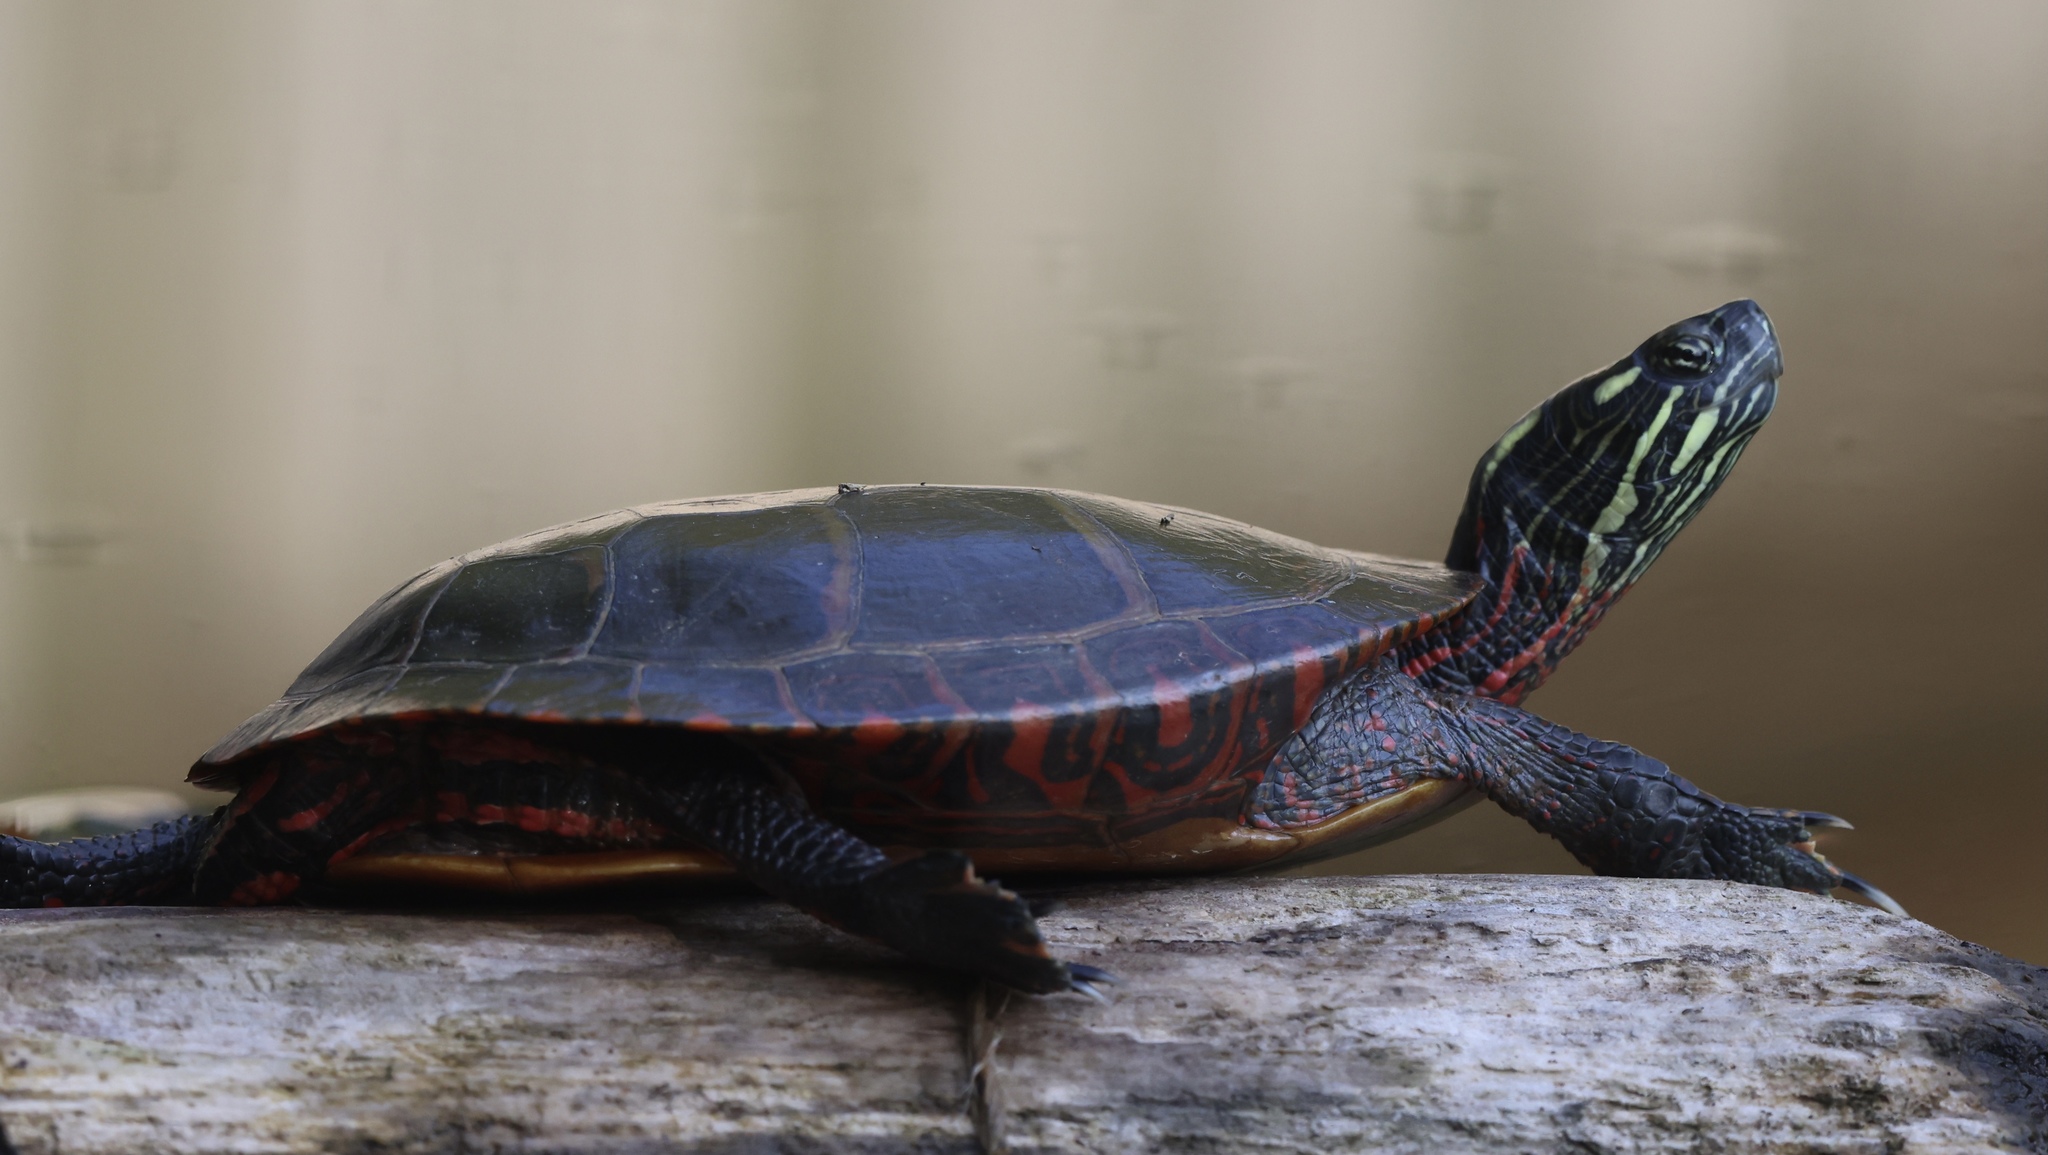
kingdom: Animalia
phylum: Chordata
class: Testudines
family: Emydidae
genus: Chrysemys
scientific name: Chrysemys picta
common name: Painted turtle
